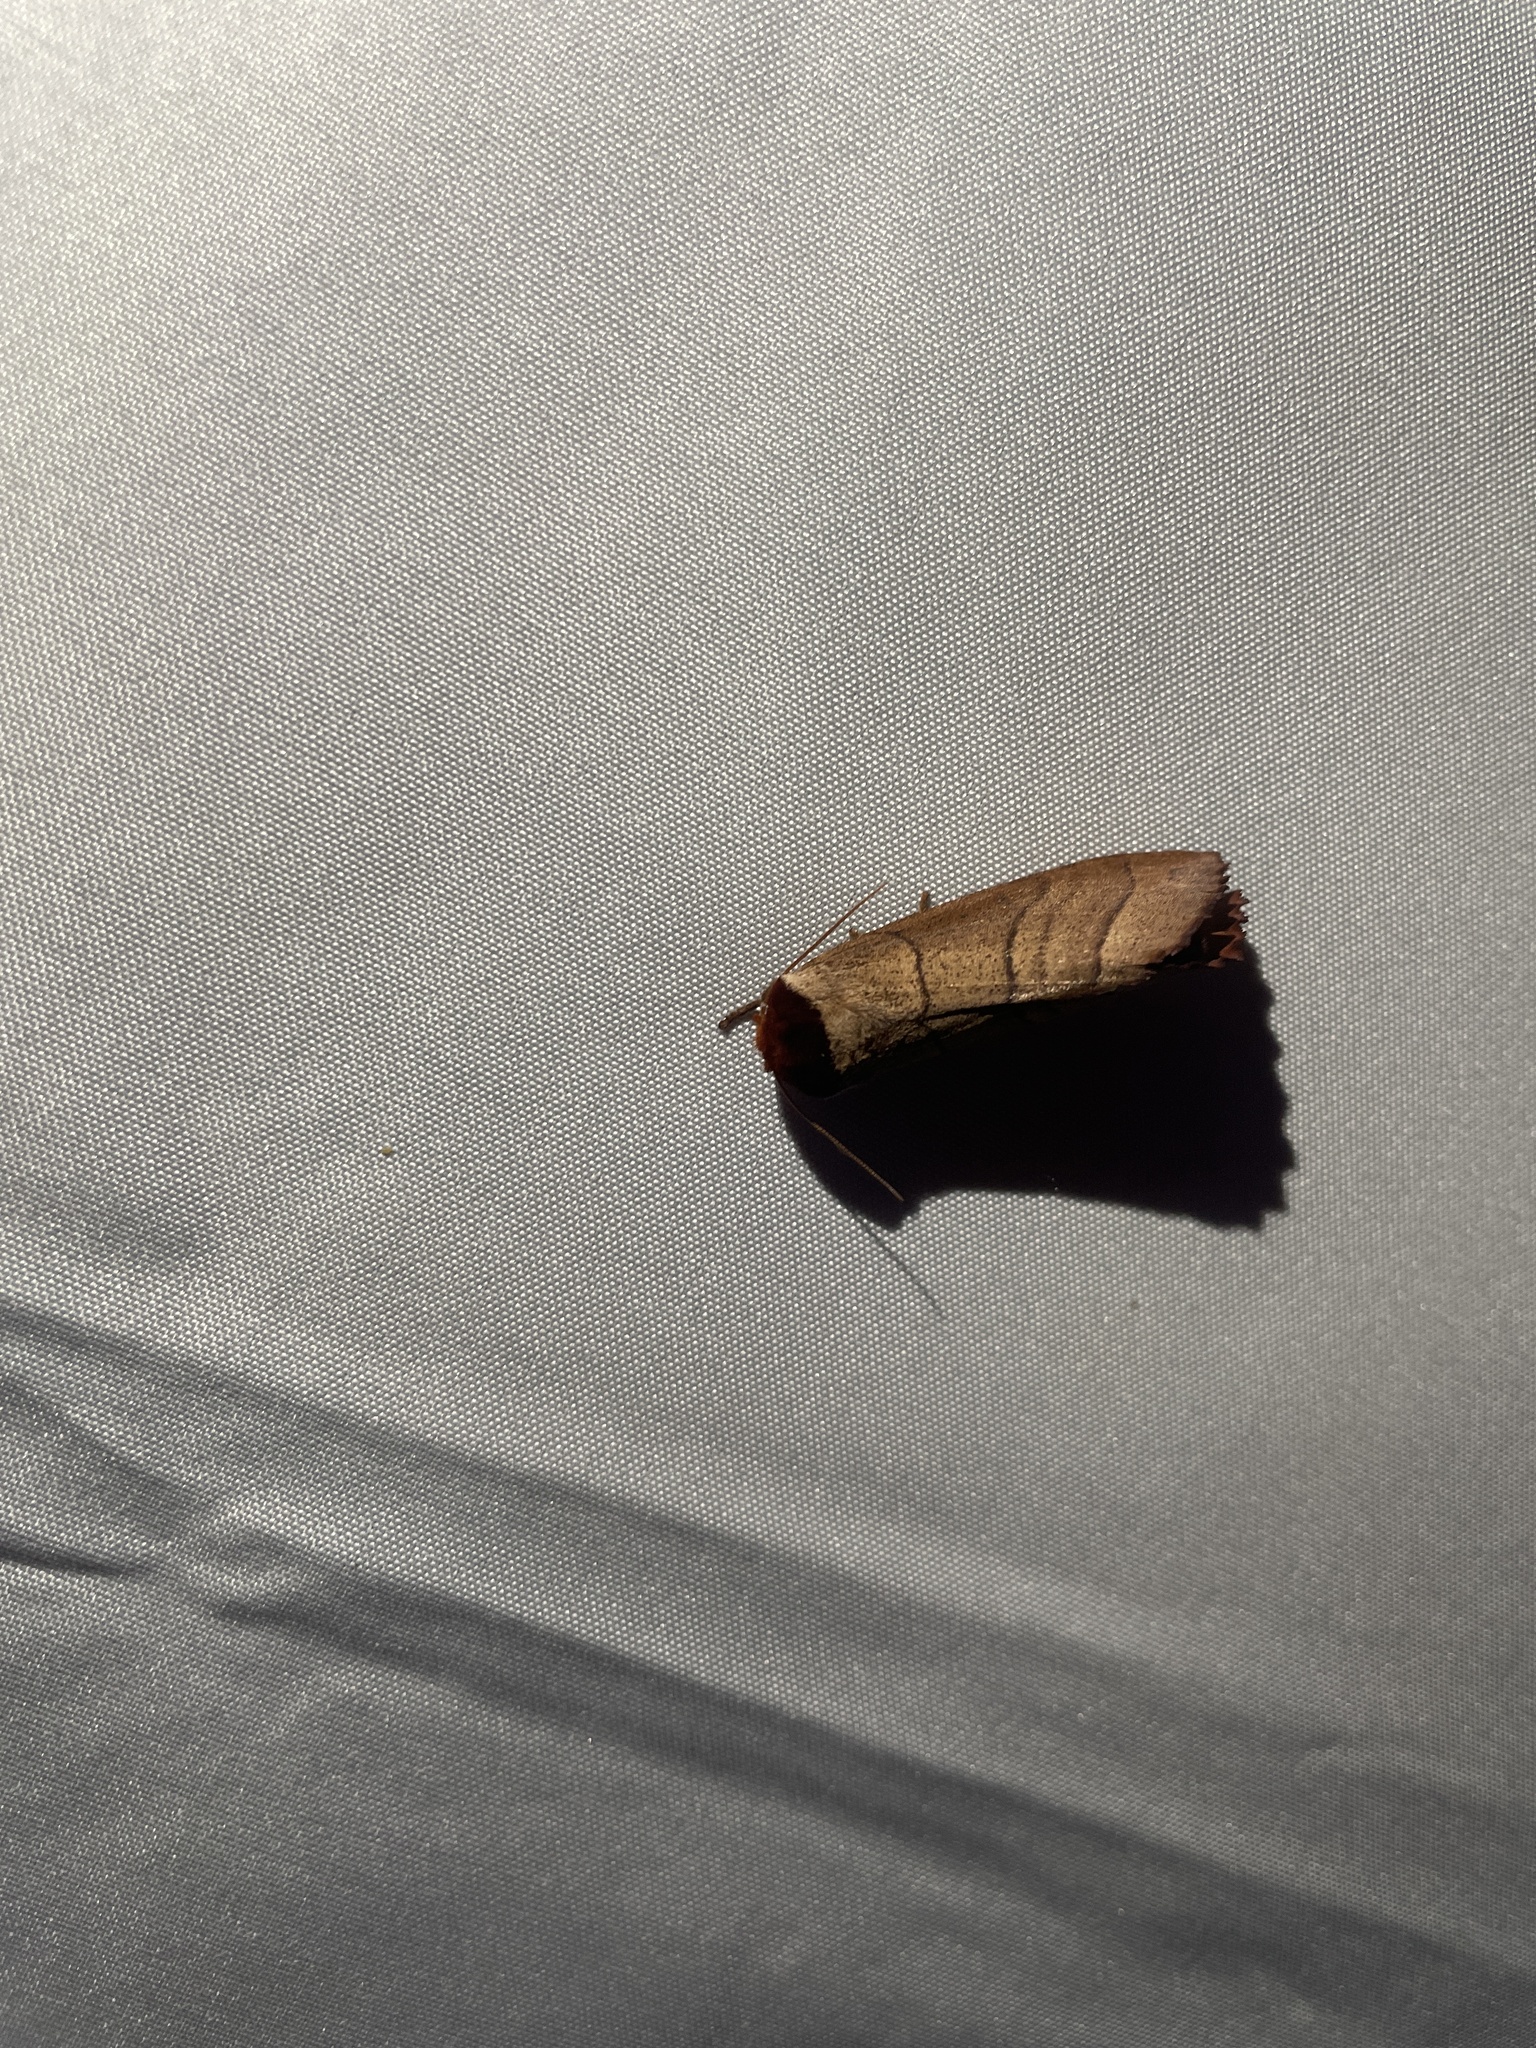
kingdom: Animalia
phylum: Arthropoda
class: Insecta
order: Lepidoptera
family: Notodontidae
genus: Datana
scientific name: Datana ministra
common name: Yellow-necked caterpillar moth
